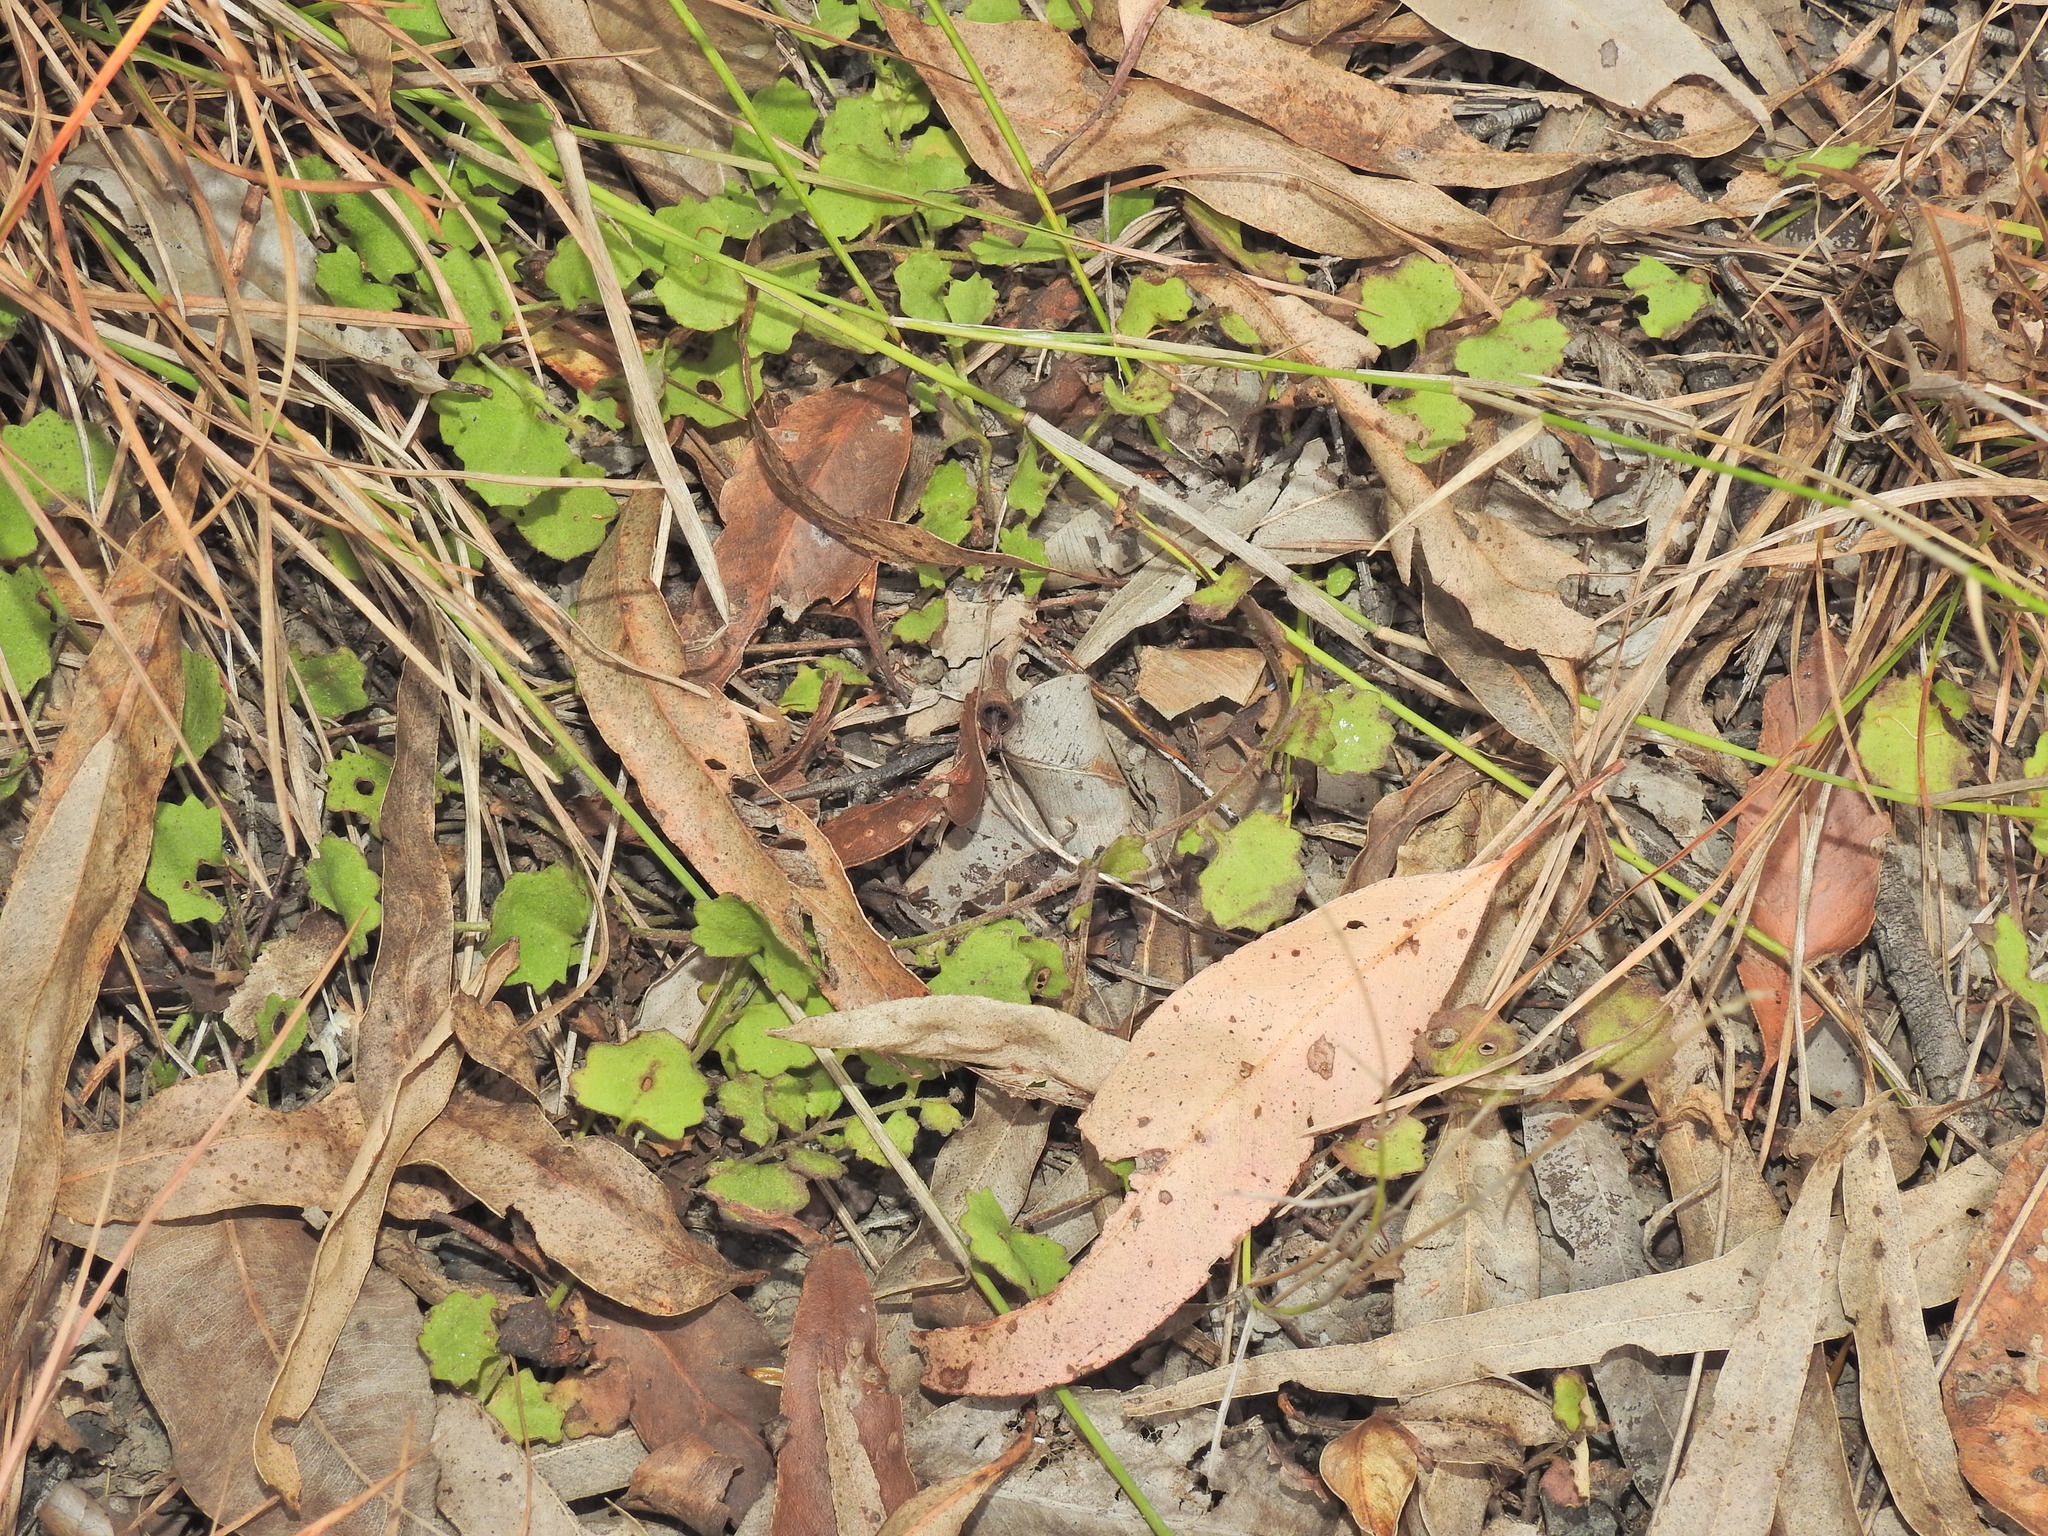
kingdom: Plantae
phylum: Tracheophyta
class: Magnoliopsida
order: Asterales
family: Goodeniaceae
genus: Goodenia
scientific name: Goodenia rotundifolia
